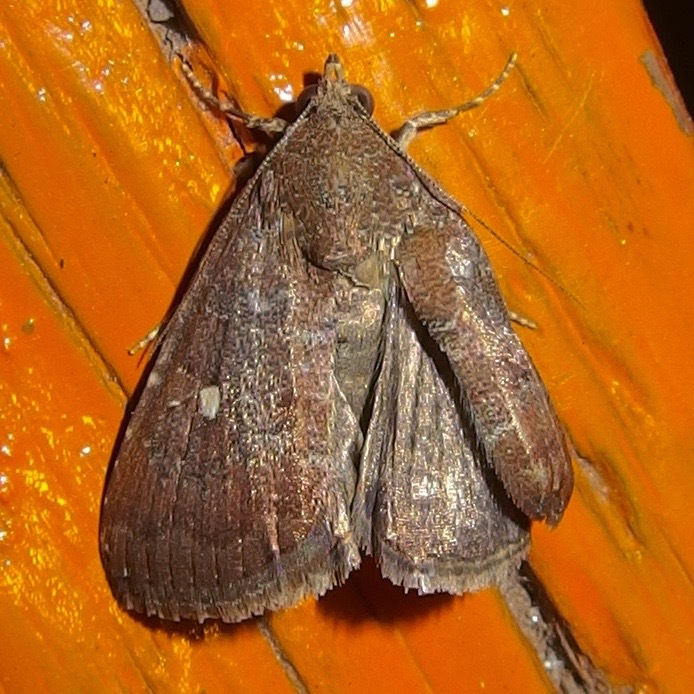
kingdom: Animalia
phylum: Arthropoda
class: Insecta
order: Lepidoptera
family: Noctuidae
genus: Amyna
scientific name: Amyna stricta
